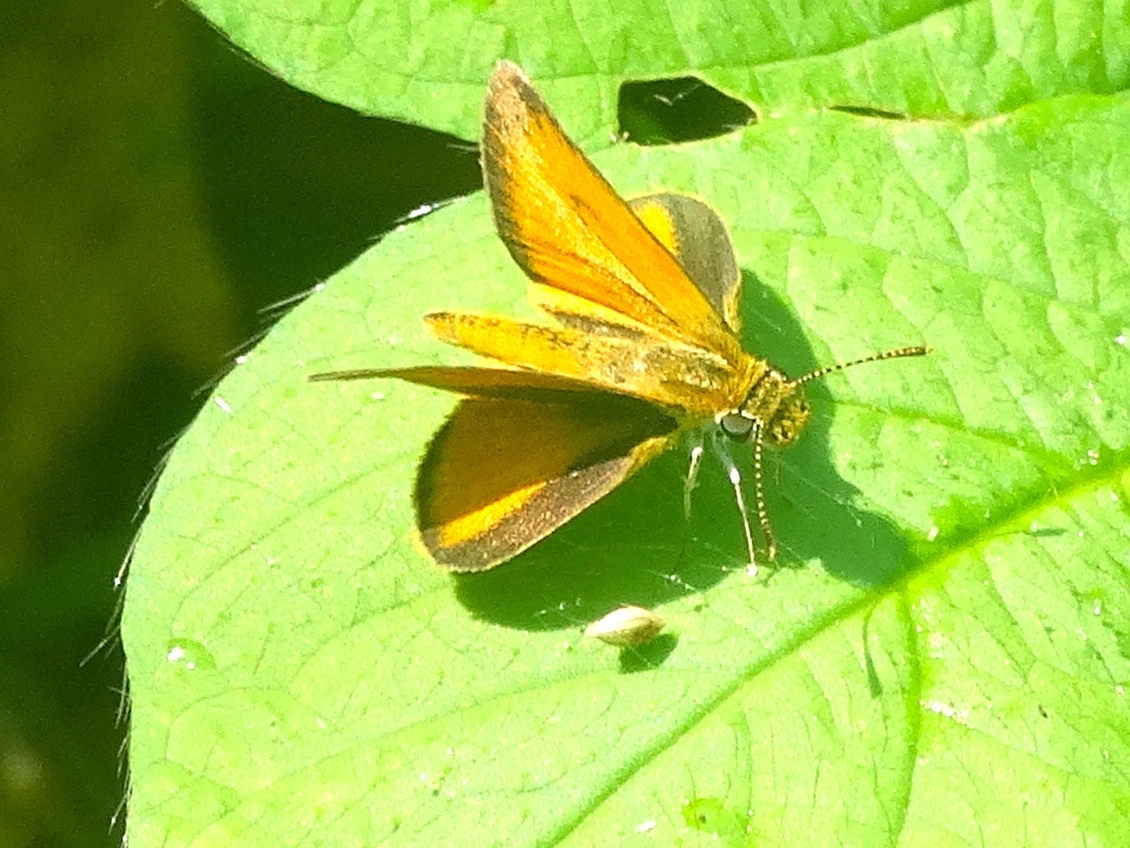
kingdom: Animalia
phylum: Arthropoda
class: Insecta
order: Lepidoptera
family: Hesperiidae
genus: Ancyloxypha
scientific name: Ancyloxypha arene
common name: Tropical least skipper
